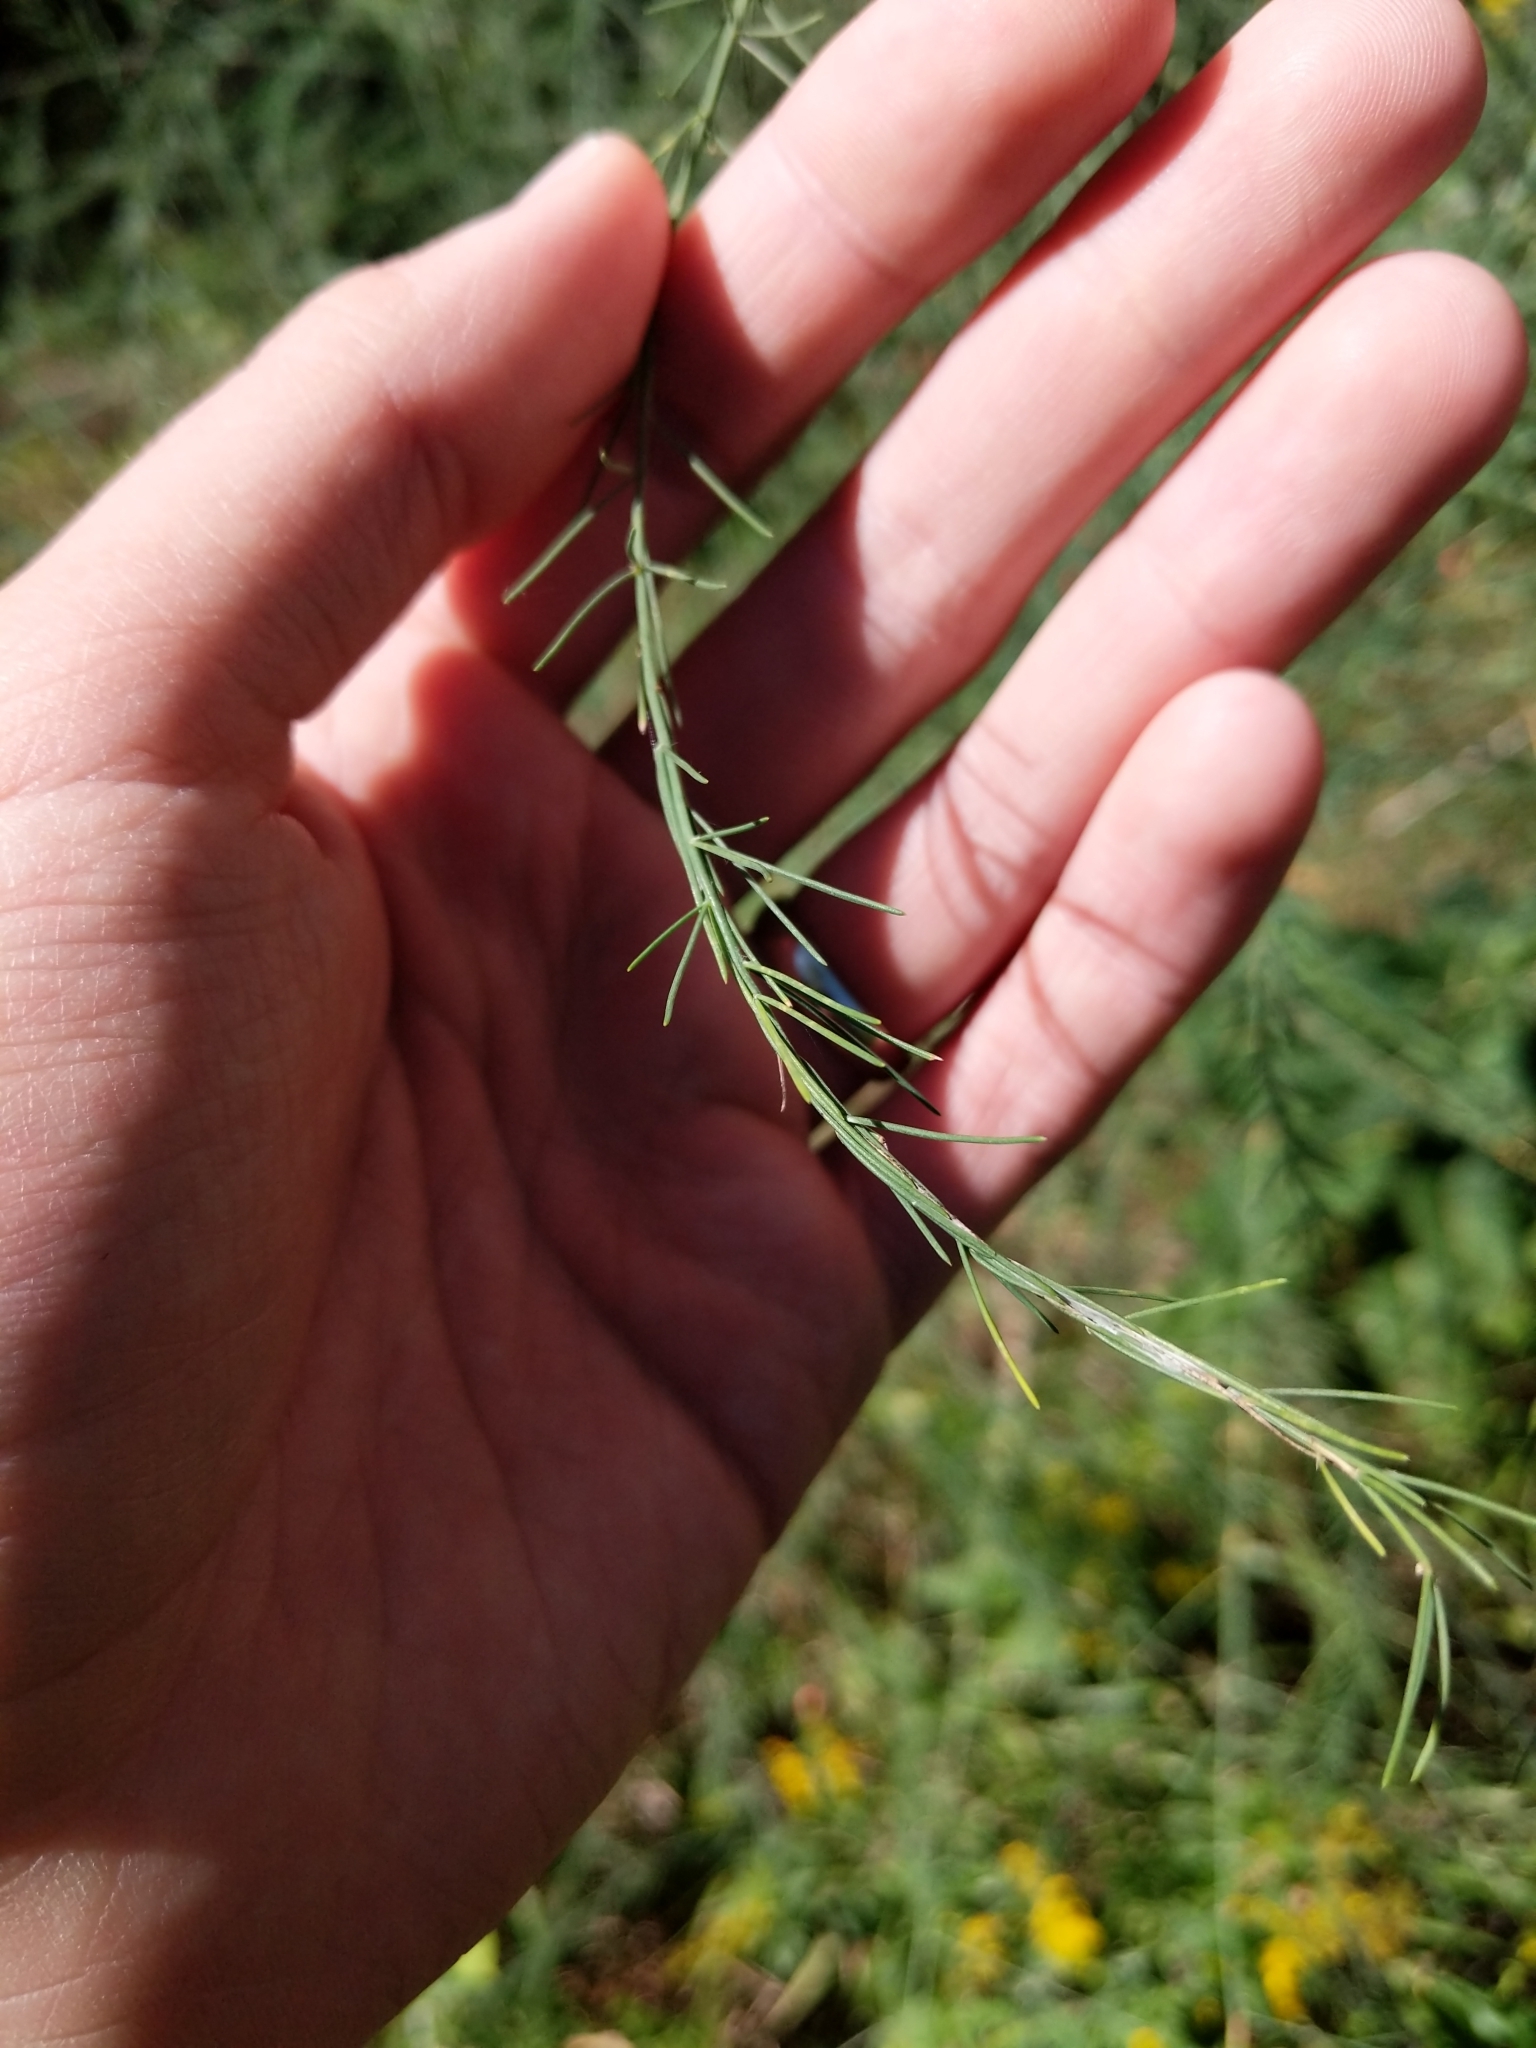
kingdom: Plantae
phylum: Tracheophyta
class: Liliopsida
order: Asparagales
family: Asparagaceae
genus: Asparagus
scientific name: Asparagus officinalis
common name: Garden asparagus
